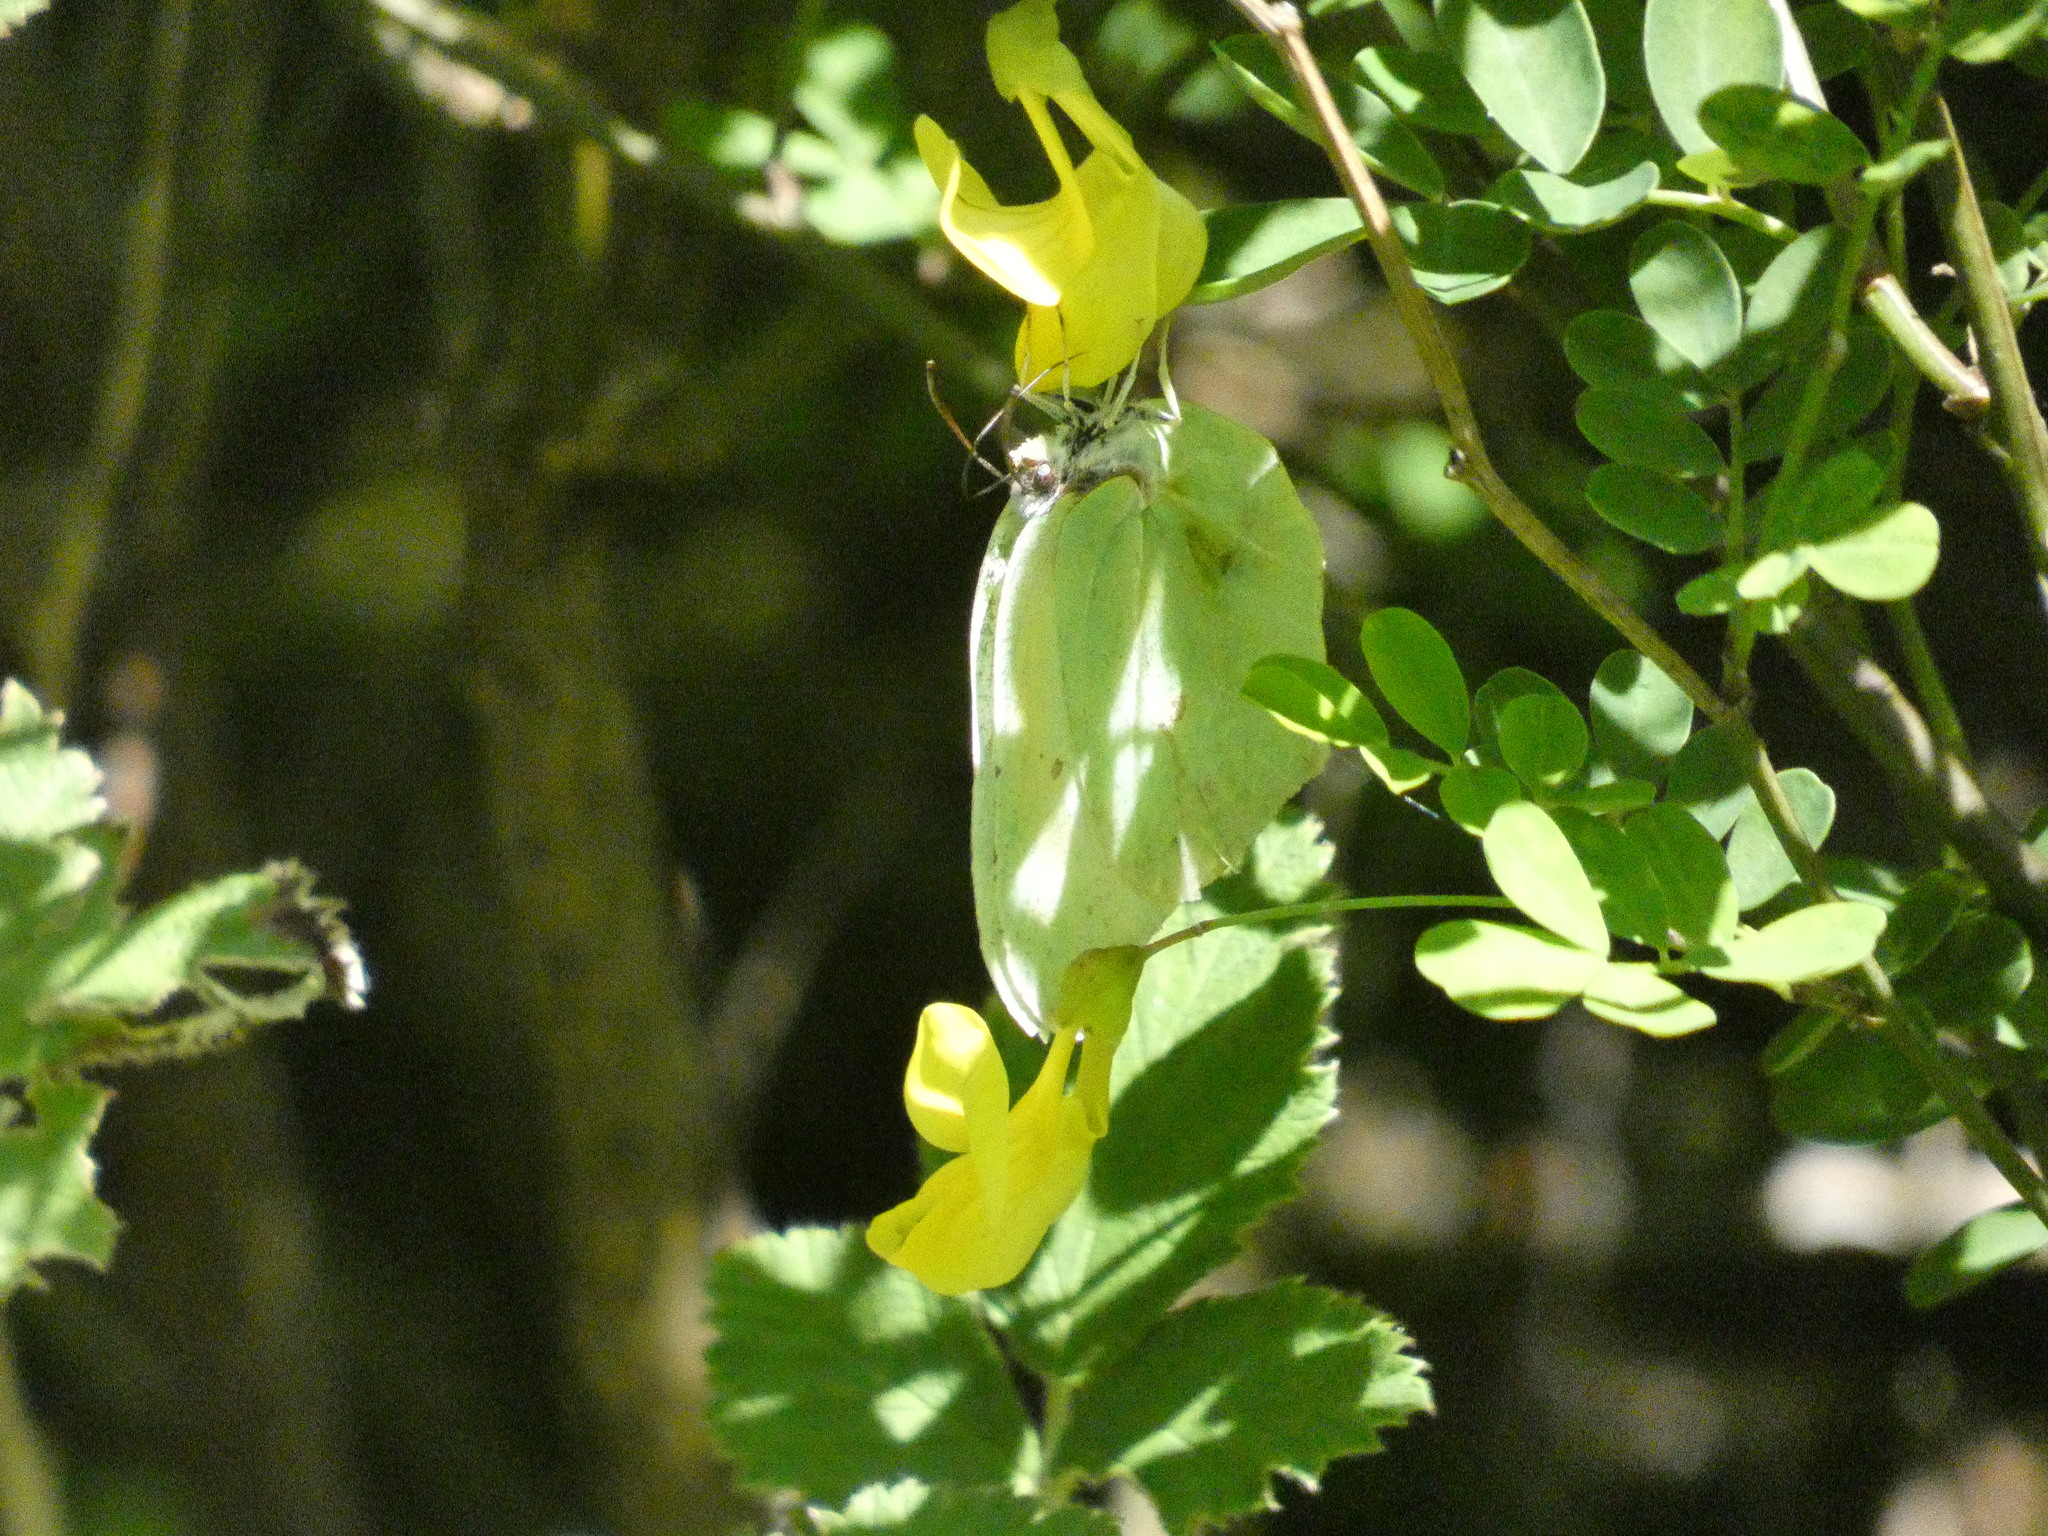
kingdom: Animalia
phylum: Arthropoda
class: Insecta
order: Lepidoptera
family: Pieridae
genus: Gonepteryx
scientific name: Gonepteryx rhamni
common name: Brimstone
